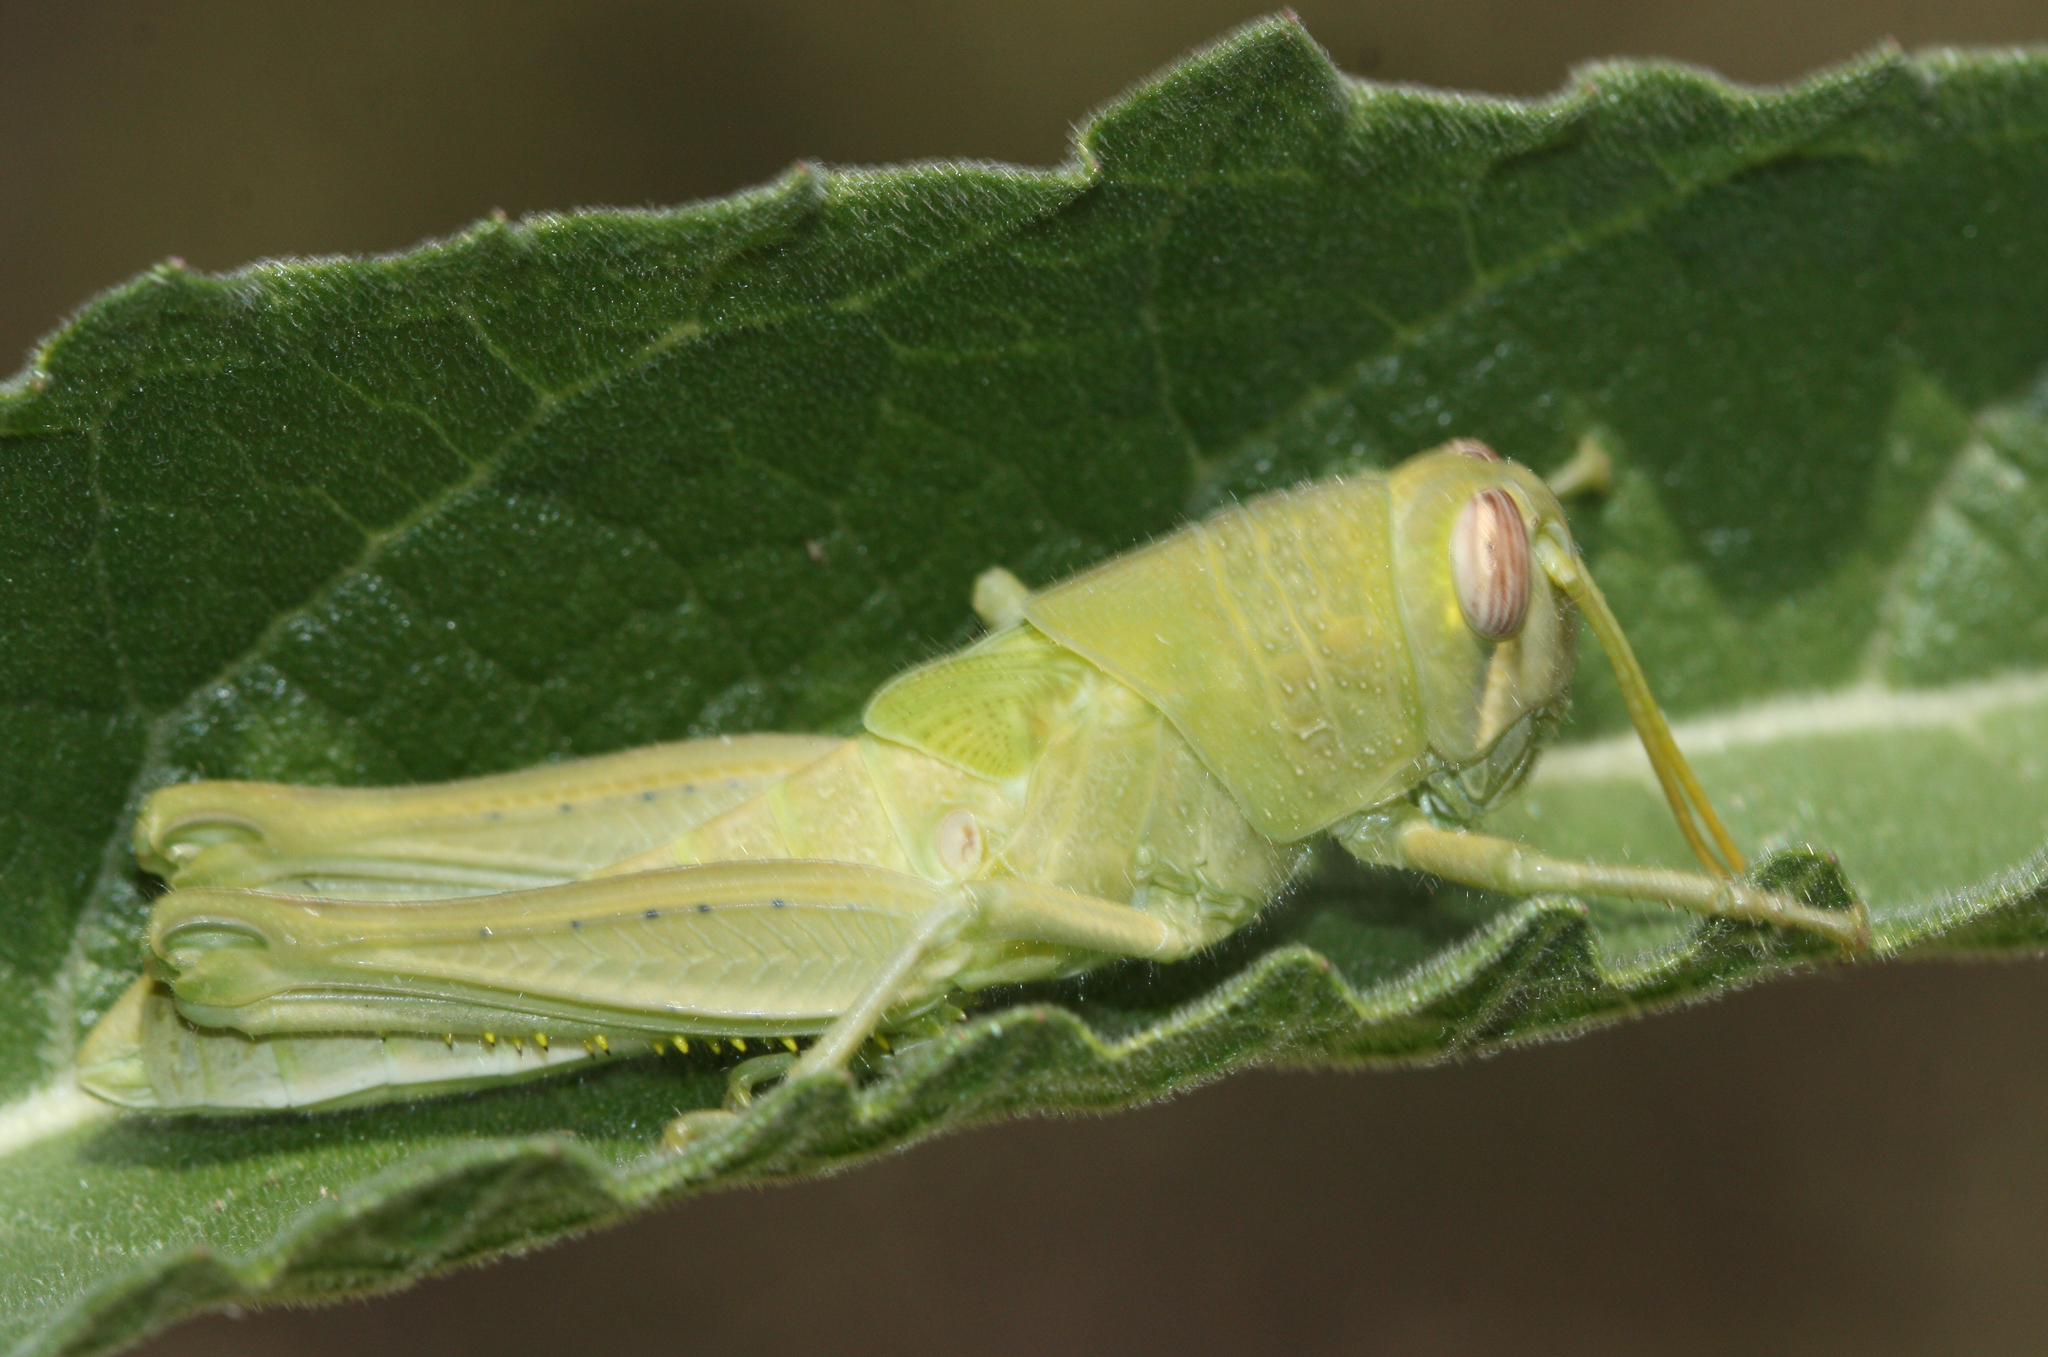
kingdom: Animalia
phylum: Arthropoda
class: Insecta
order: Orthoptera
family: Acrididae
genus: Schistocerca
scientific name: Schistocerca nitens
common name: Vagrant grasshopper
